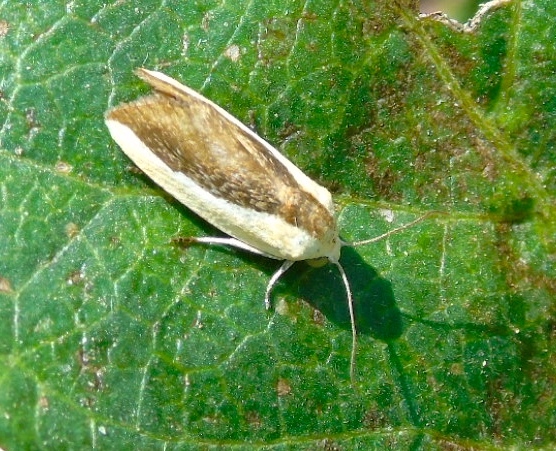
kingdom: Animalia
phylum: Arthropoda
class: Insecta
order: Lepidoptera
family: Noctuidae
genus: Acontia
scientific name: Acontia exigua
